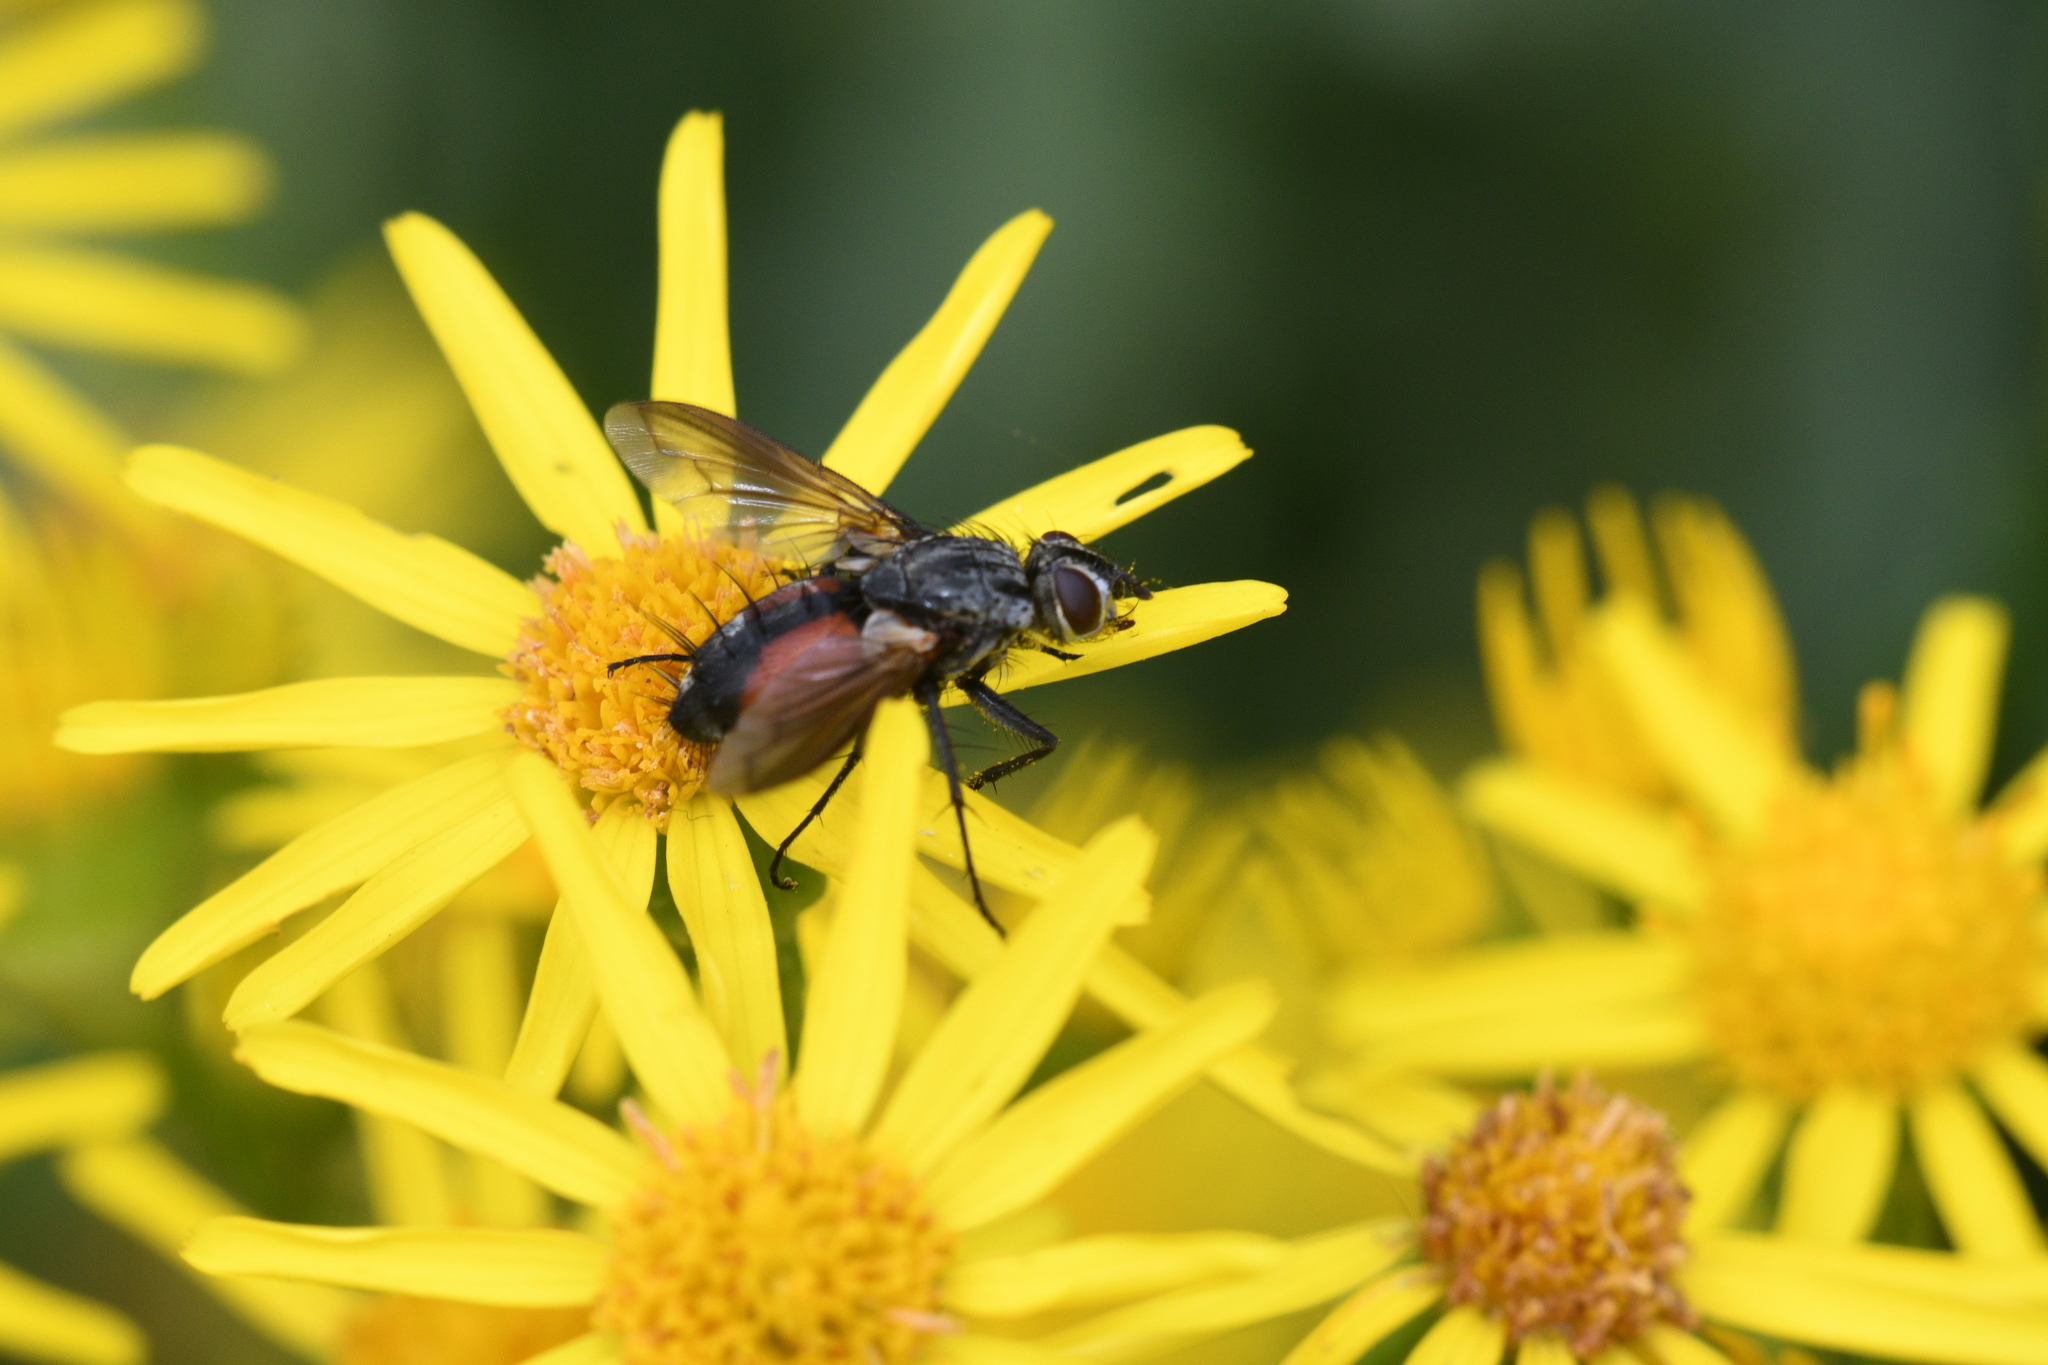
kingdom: Animalia
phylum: Arthropoda
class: Insecta
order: Diptera
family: Tachinidae
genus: Eriothrix
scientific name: Eriothrix rufomaculatus
